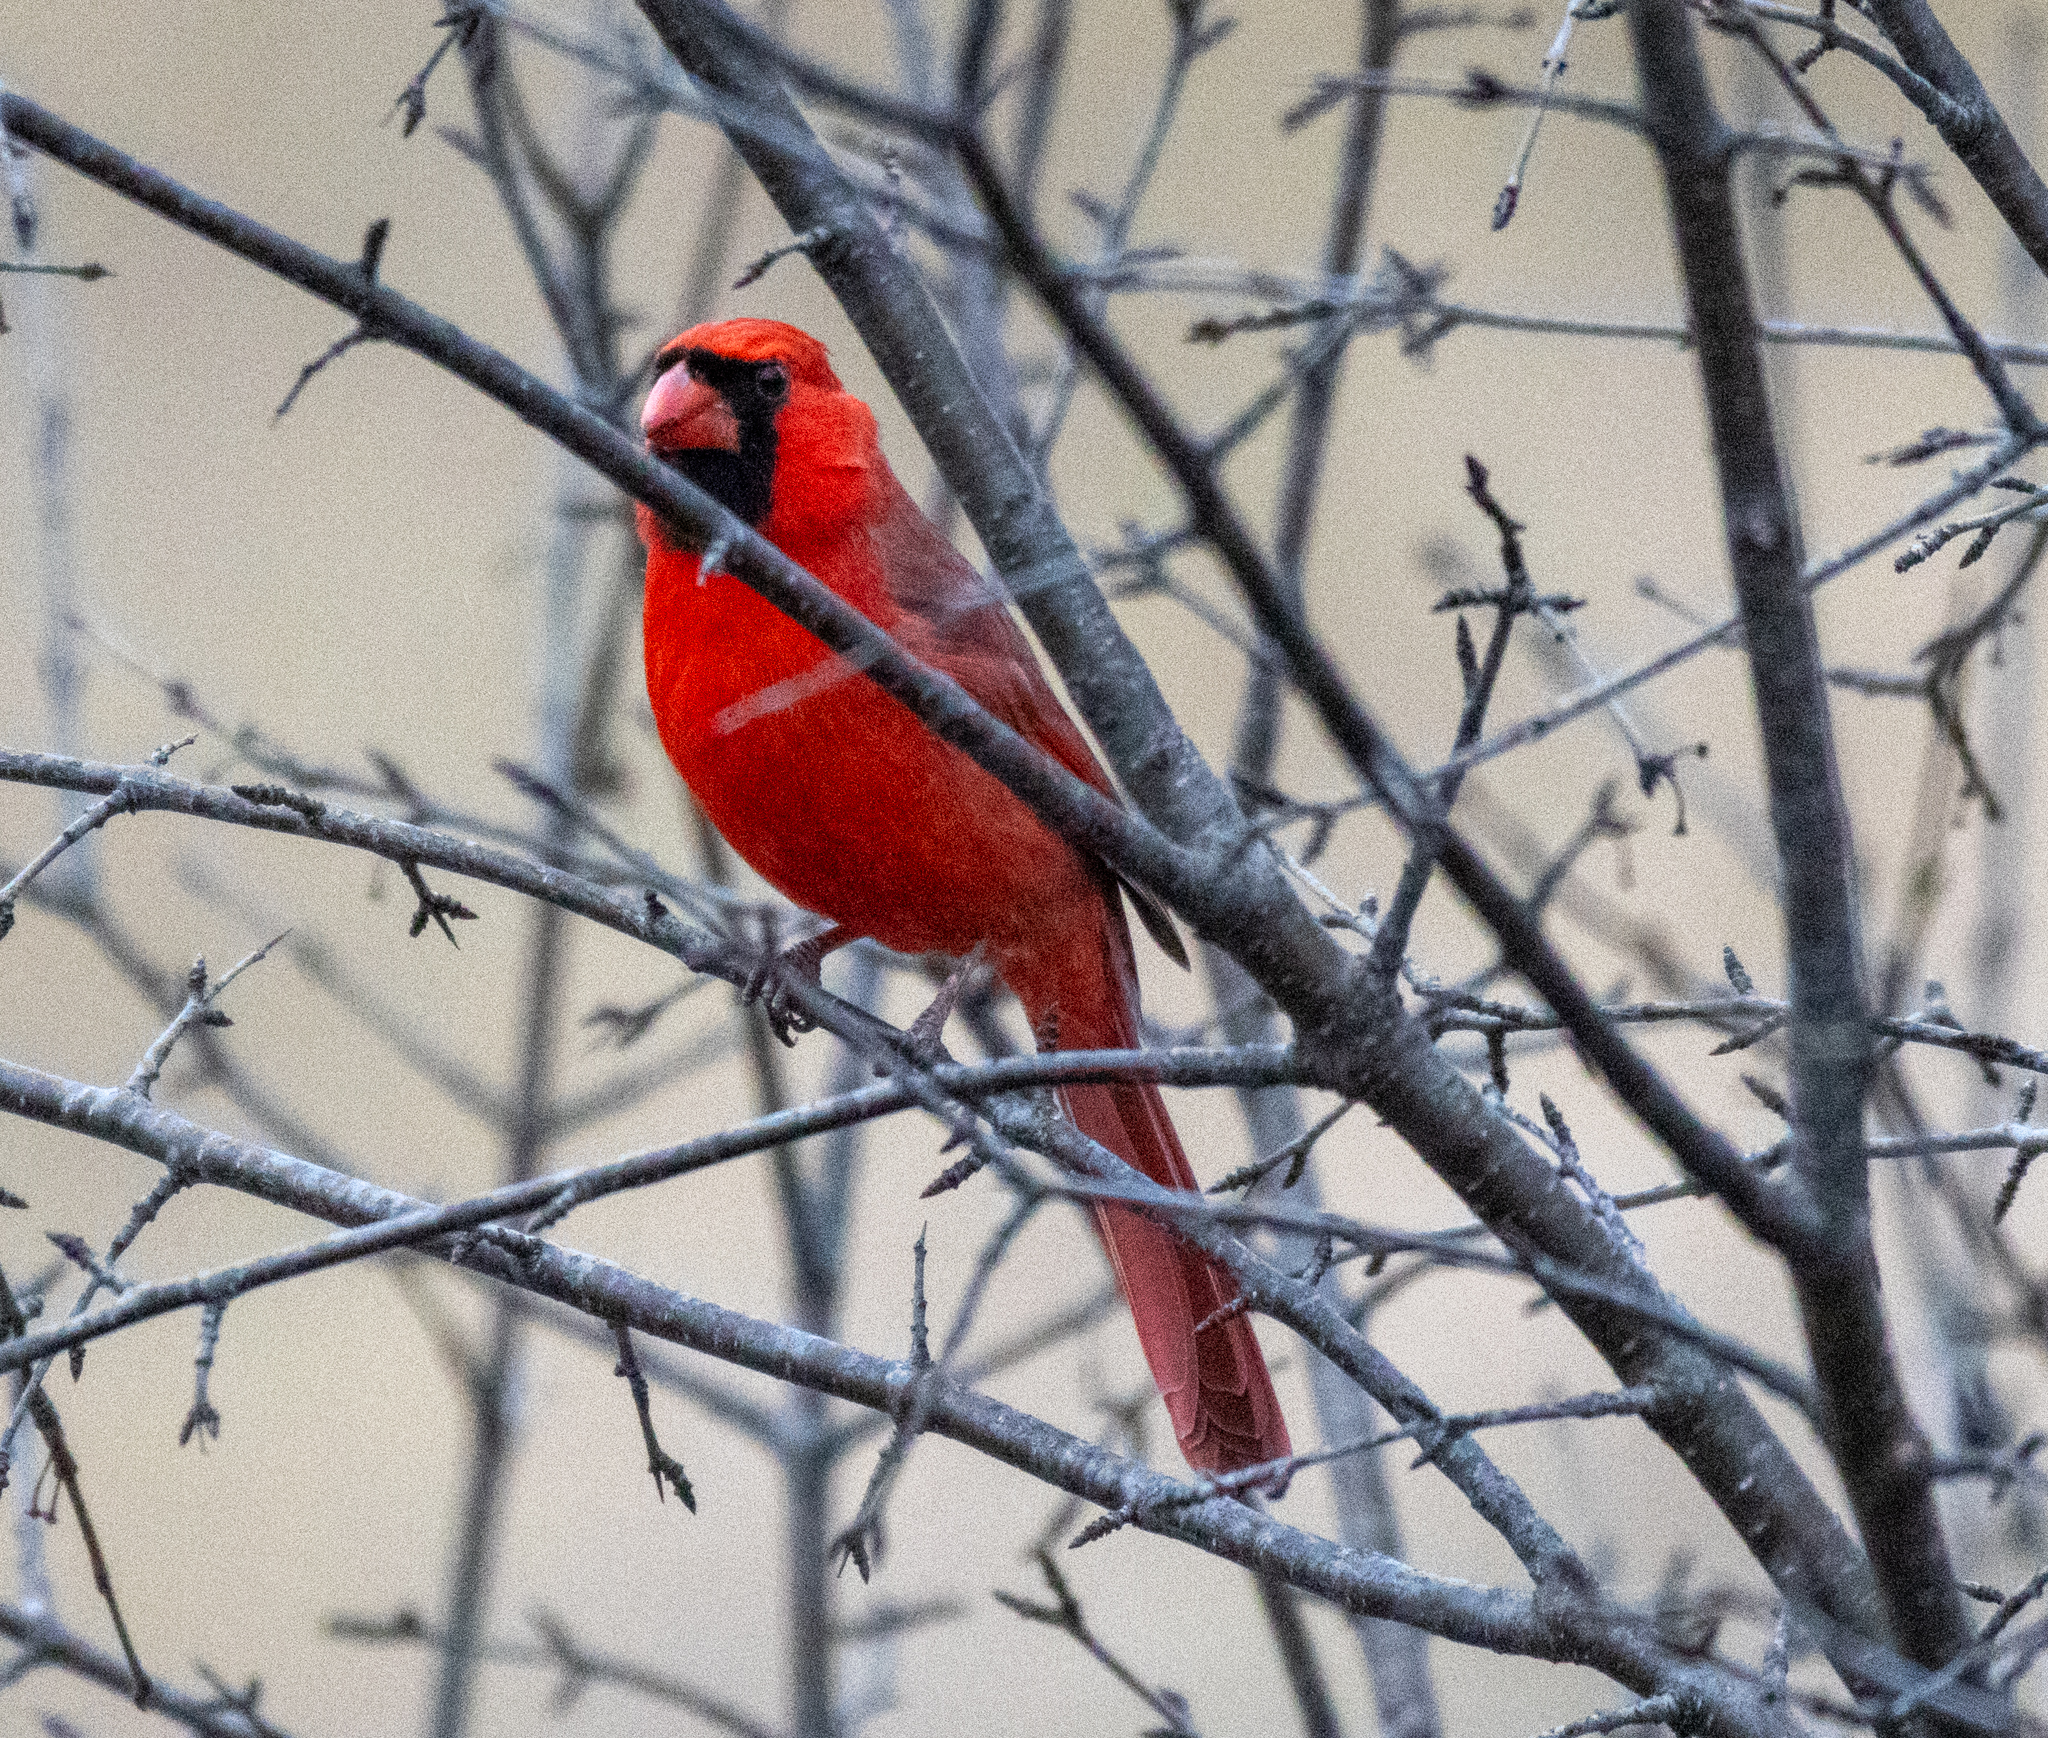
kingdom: Animalia
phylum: Chordata
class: Aves
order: Passeriformes
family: Cardinalidae
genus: Cardinalis
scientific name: Cardinalis cardinalis
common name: Northern cardinal
